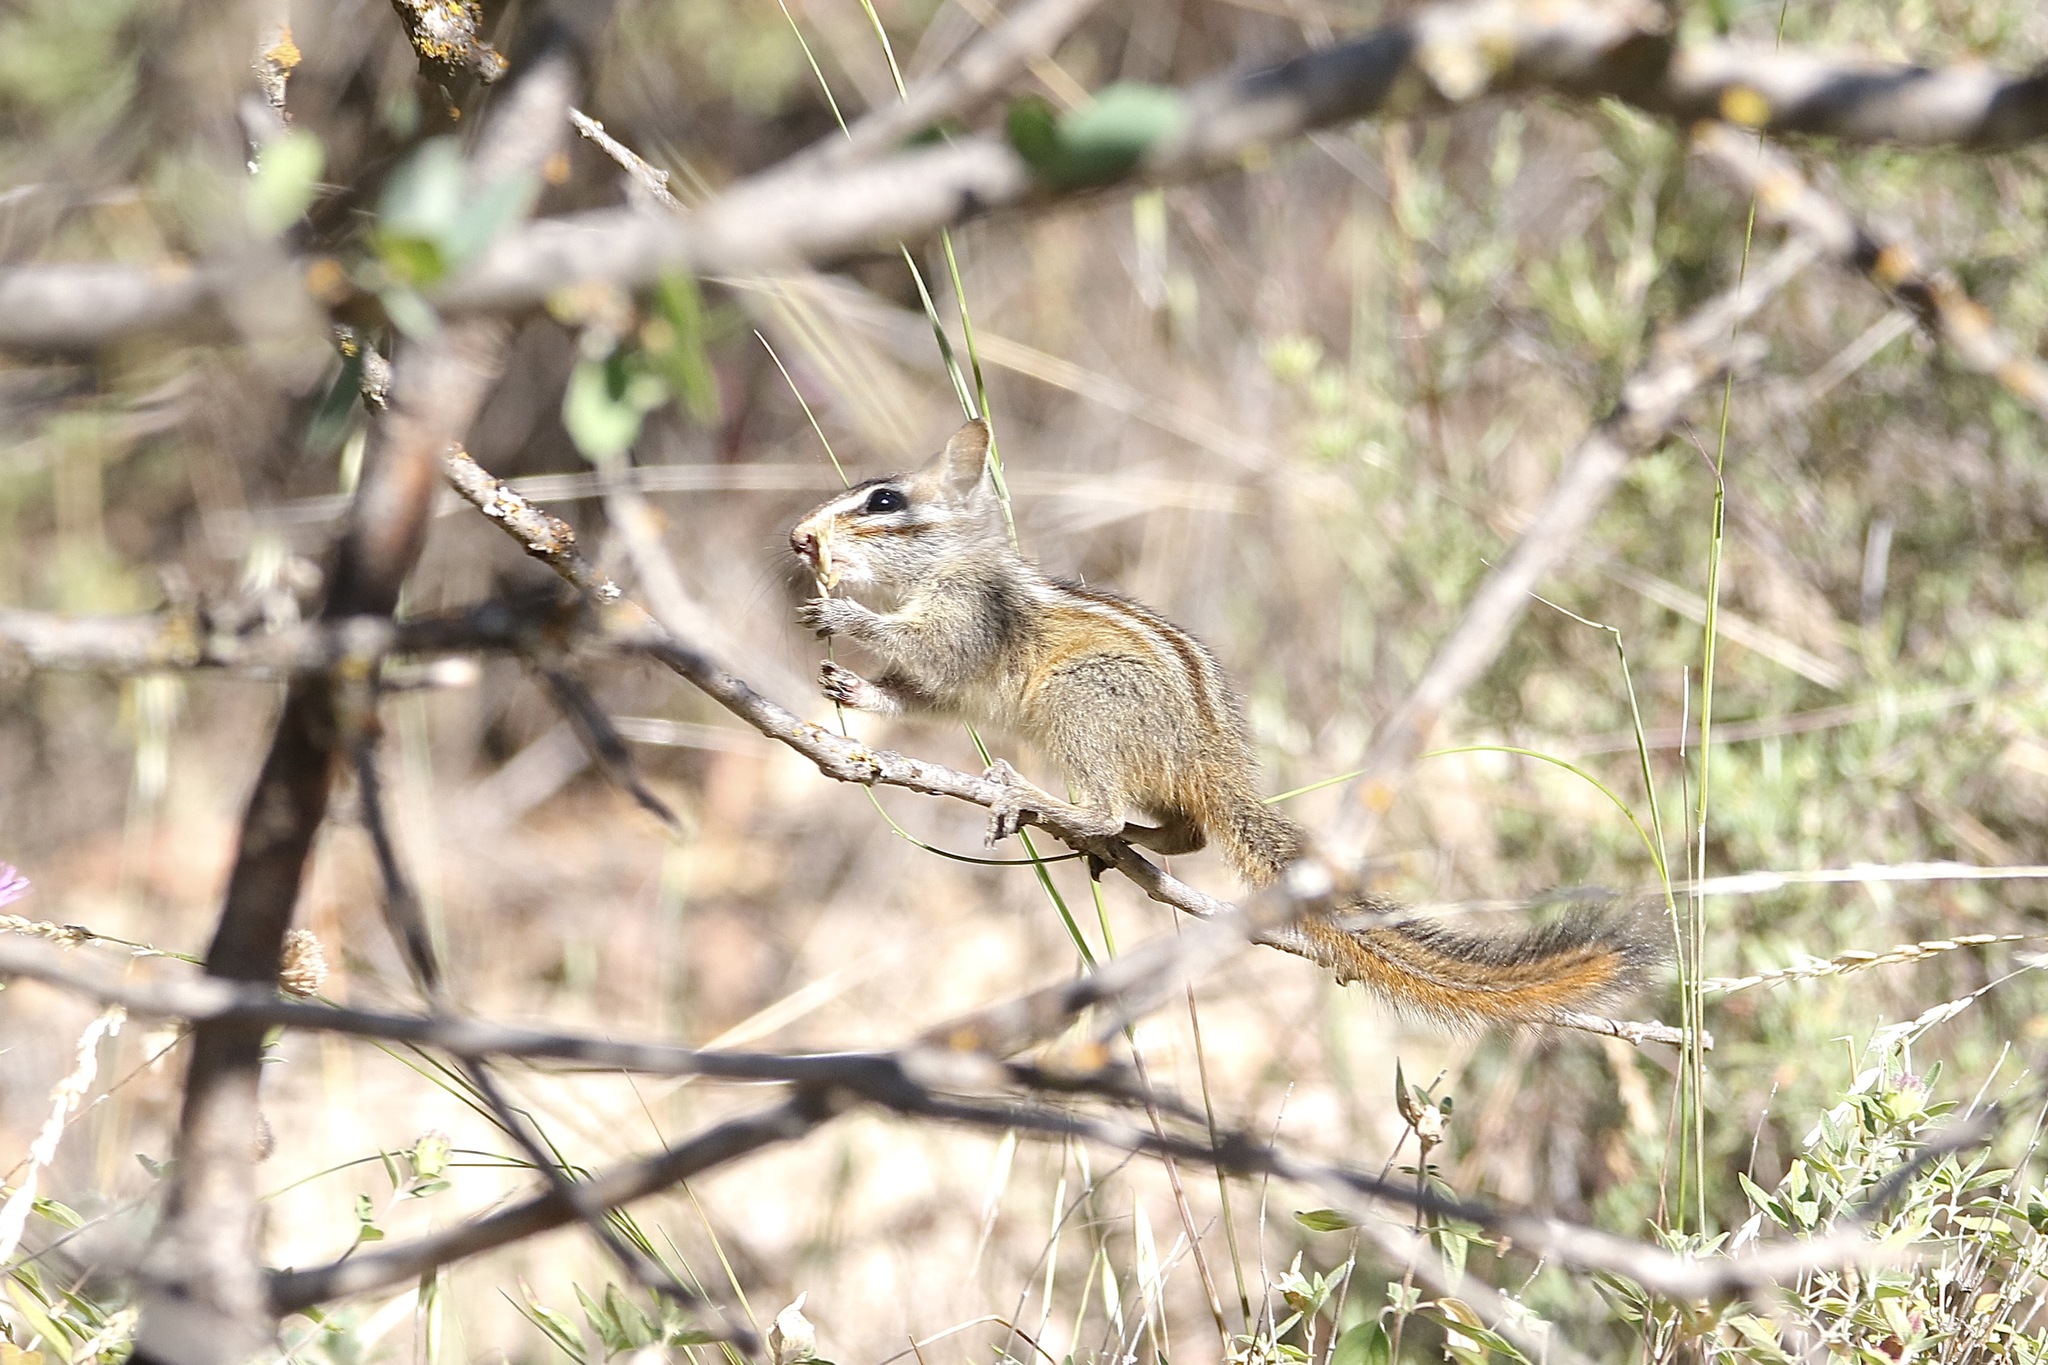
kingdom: Animalia
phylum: Chordata
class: Mammalia
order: Rodentia
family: Sciuridae
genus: Tamias
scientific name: Tamias merriami
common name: Merriam's chipmunk
